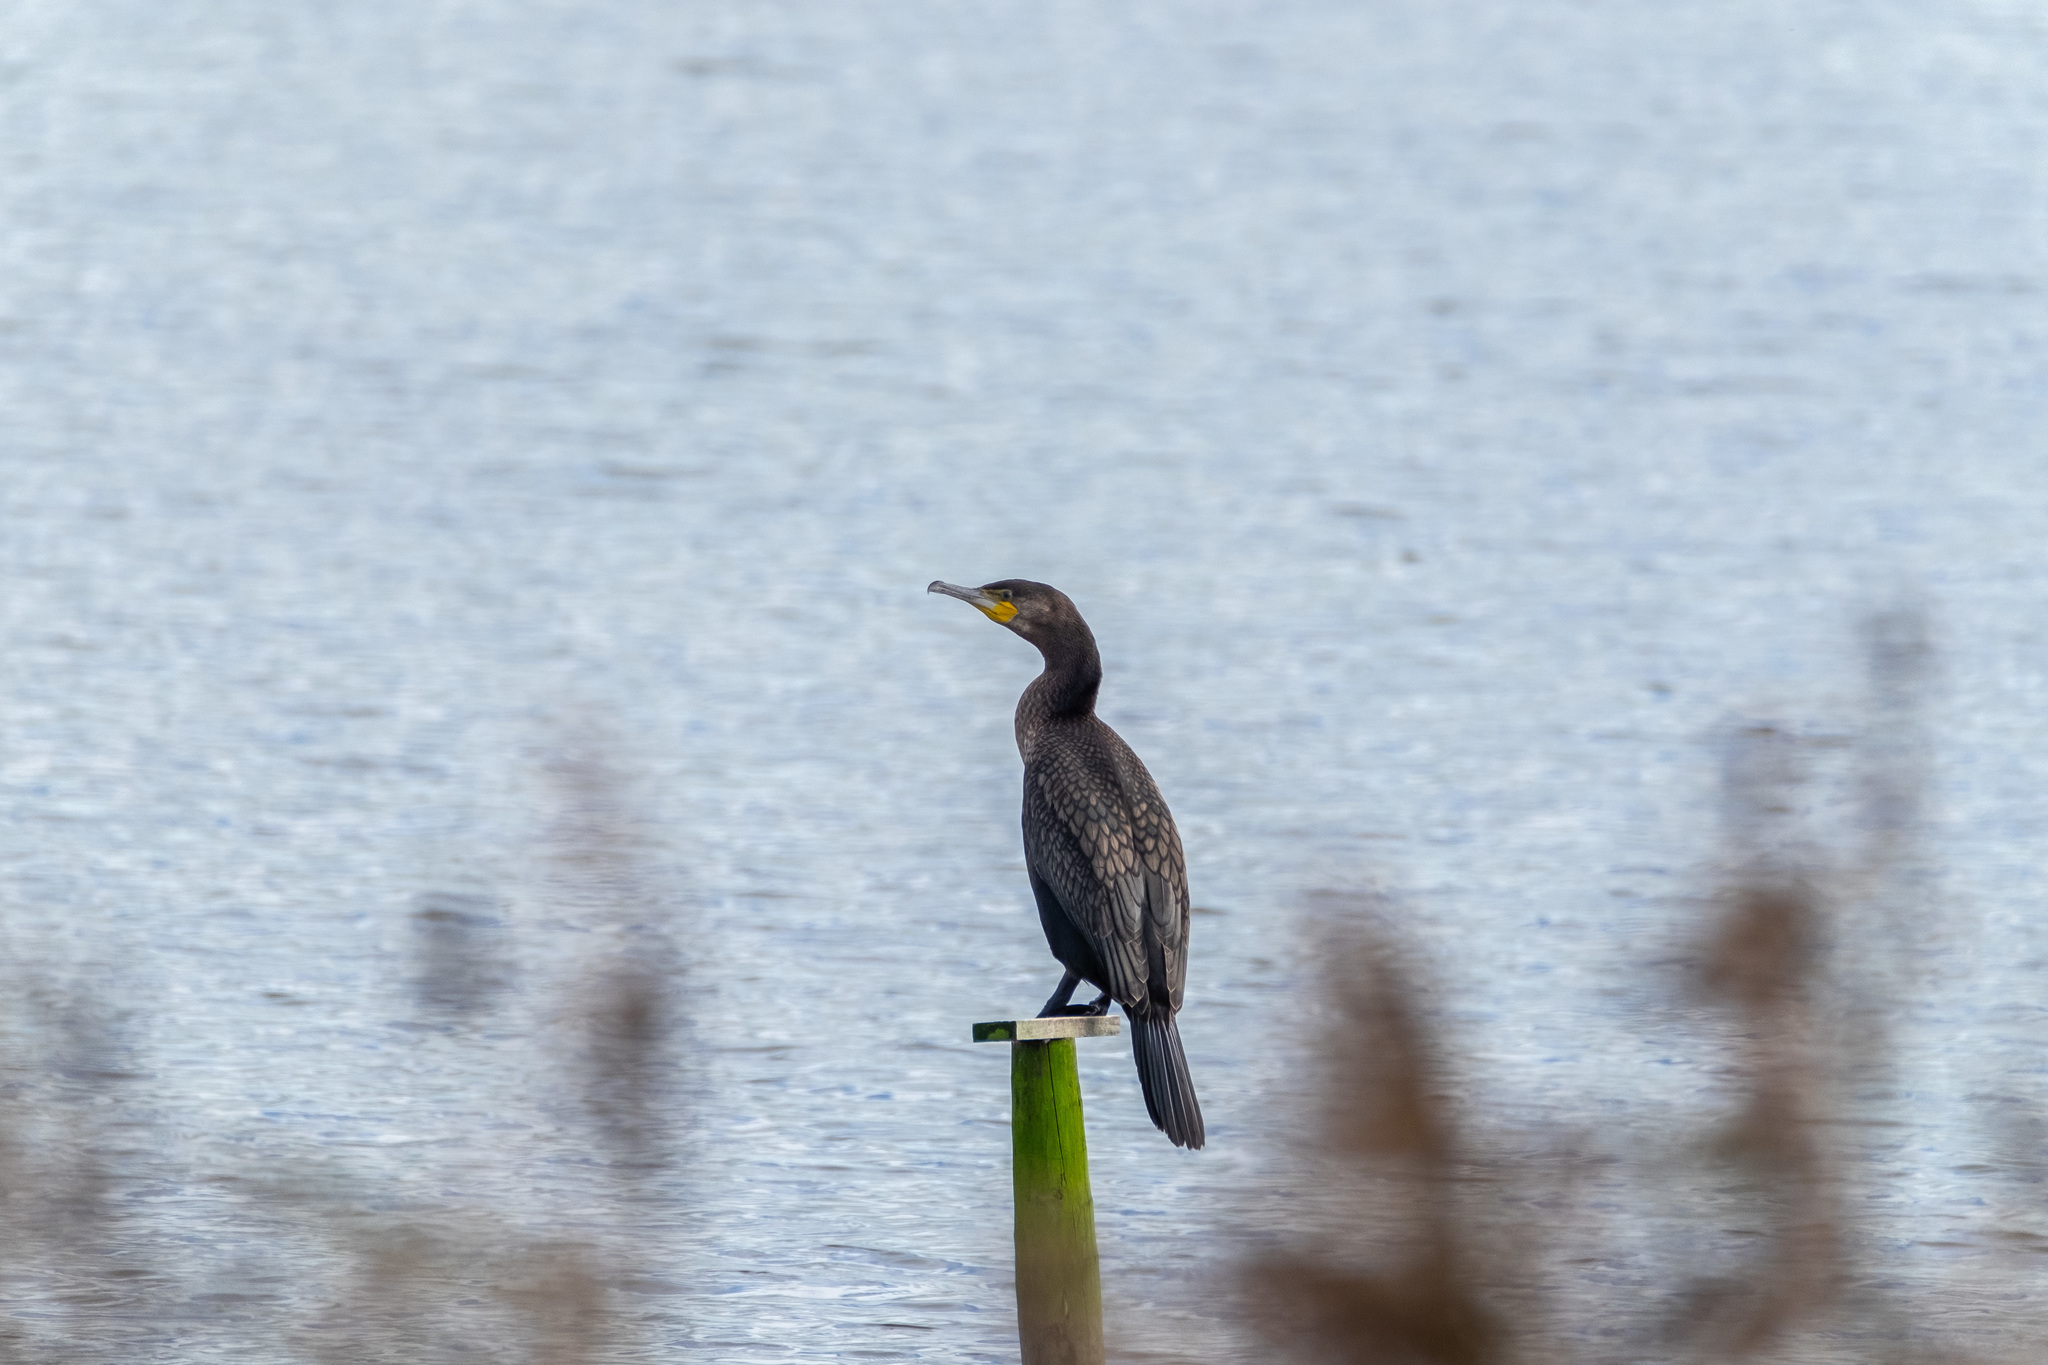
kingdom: Animalia
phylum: Chordata
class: Aves
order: Suliformes
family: Phalacrocoracidae
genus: Phalacrocorax
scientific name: Phalacrocorax carbo
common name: Great cormorant
